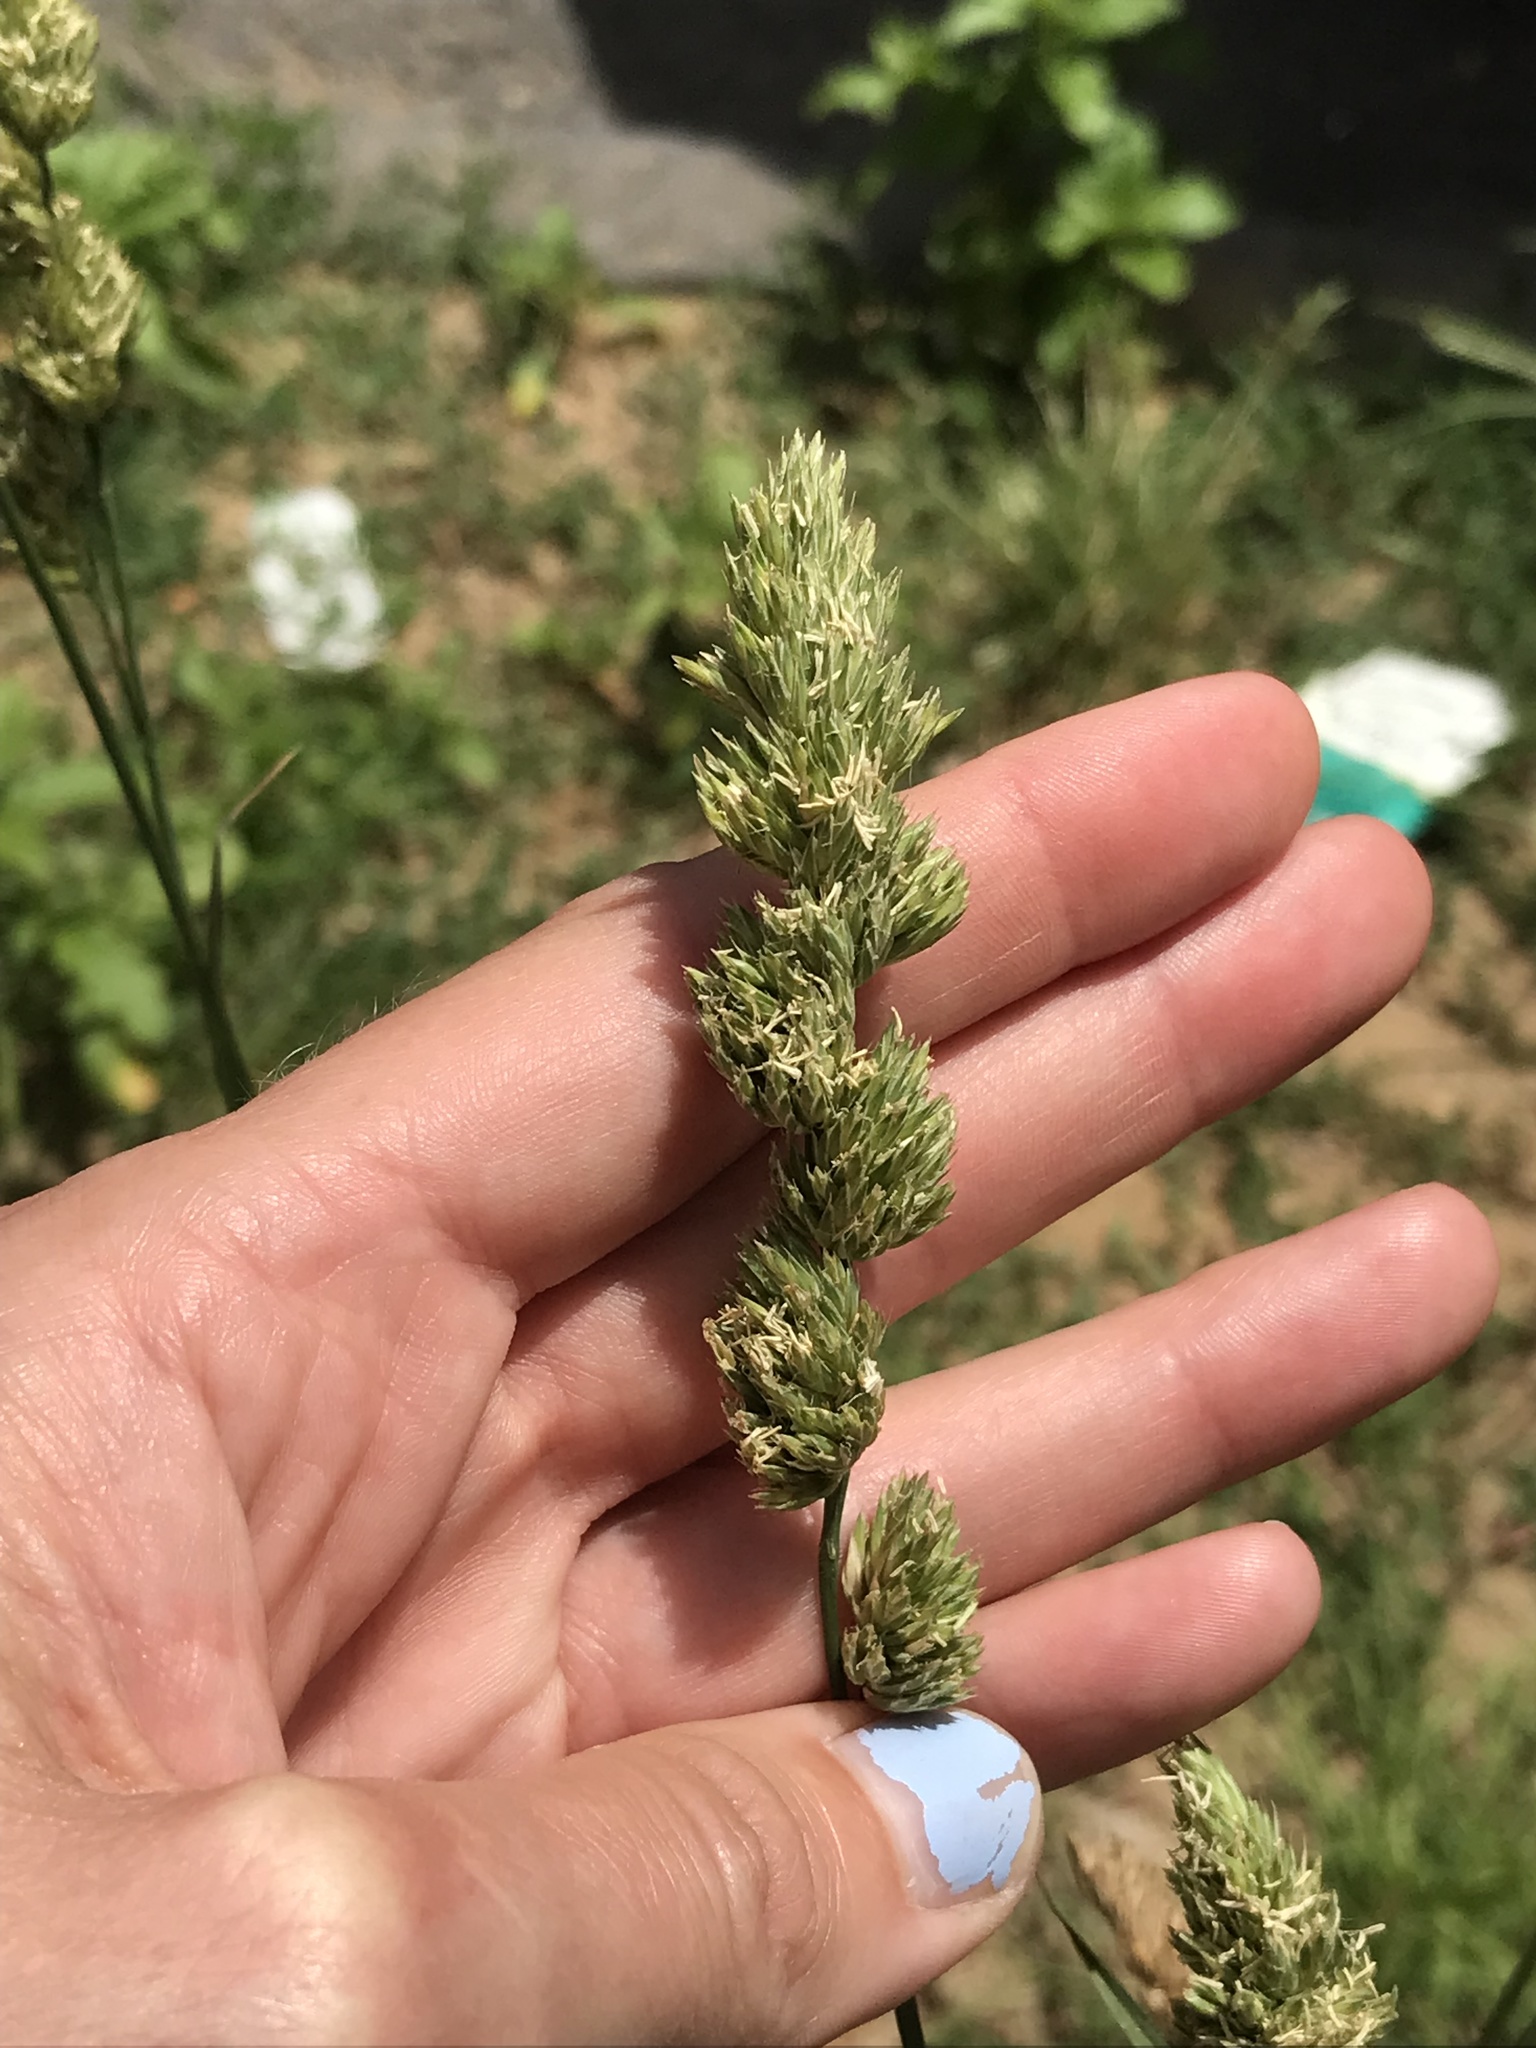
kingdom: Plantae
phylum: Tracheophyta
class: Liliopsida
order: Poales
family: Poaceae
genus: Dactylis
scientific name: Dactylis glomerata
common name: Orchardgrass
